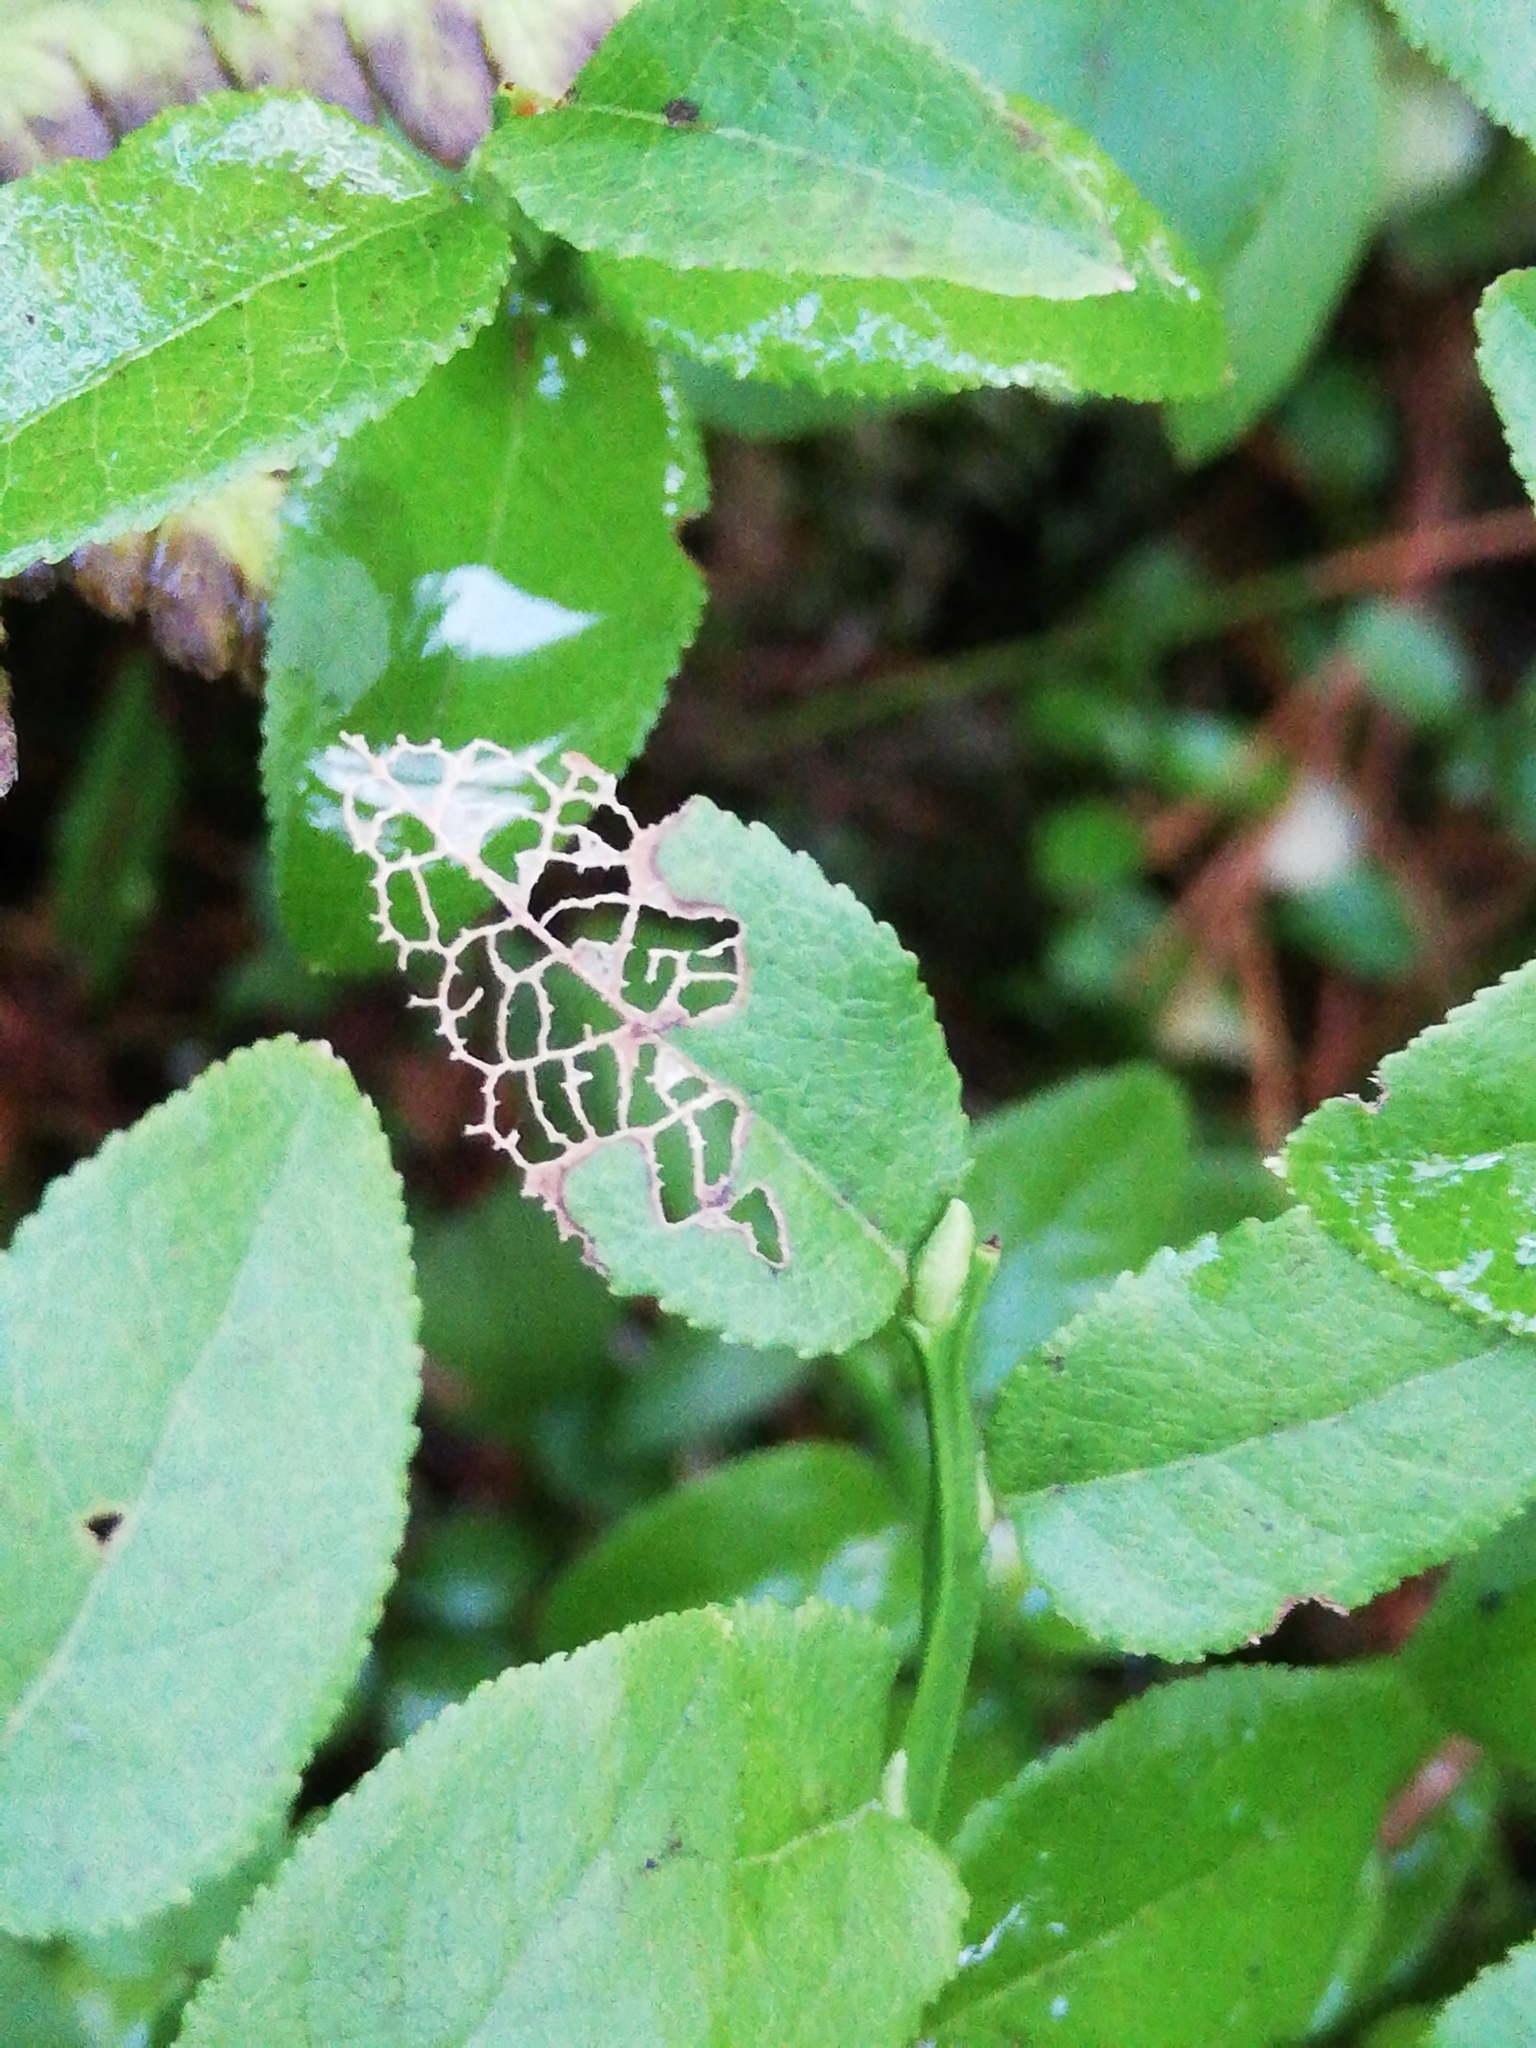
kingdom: Plantae
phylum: Tracheophyta
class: Magnoliopsida
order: Ericales
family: Ericaceae
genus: Vaccinium
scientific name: Vaccinium myrtillus
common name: Bilberry
